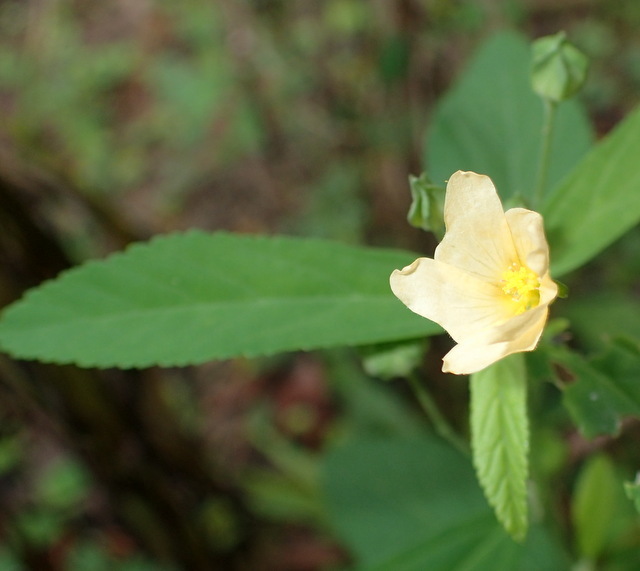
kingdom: Plantae
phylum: Tracheophyta
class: Magnoliopsida
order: Malvales
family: Malvaceae
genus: Sida
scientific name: Sida rhombifolia
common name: Queensland-hemp
